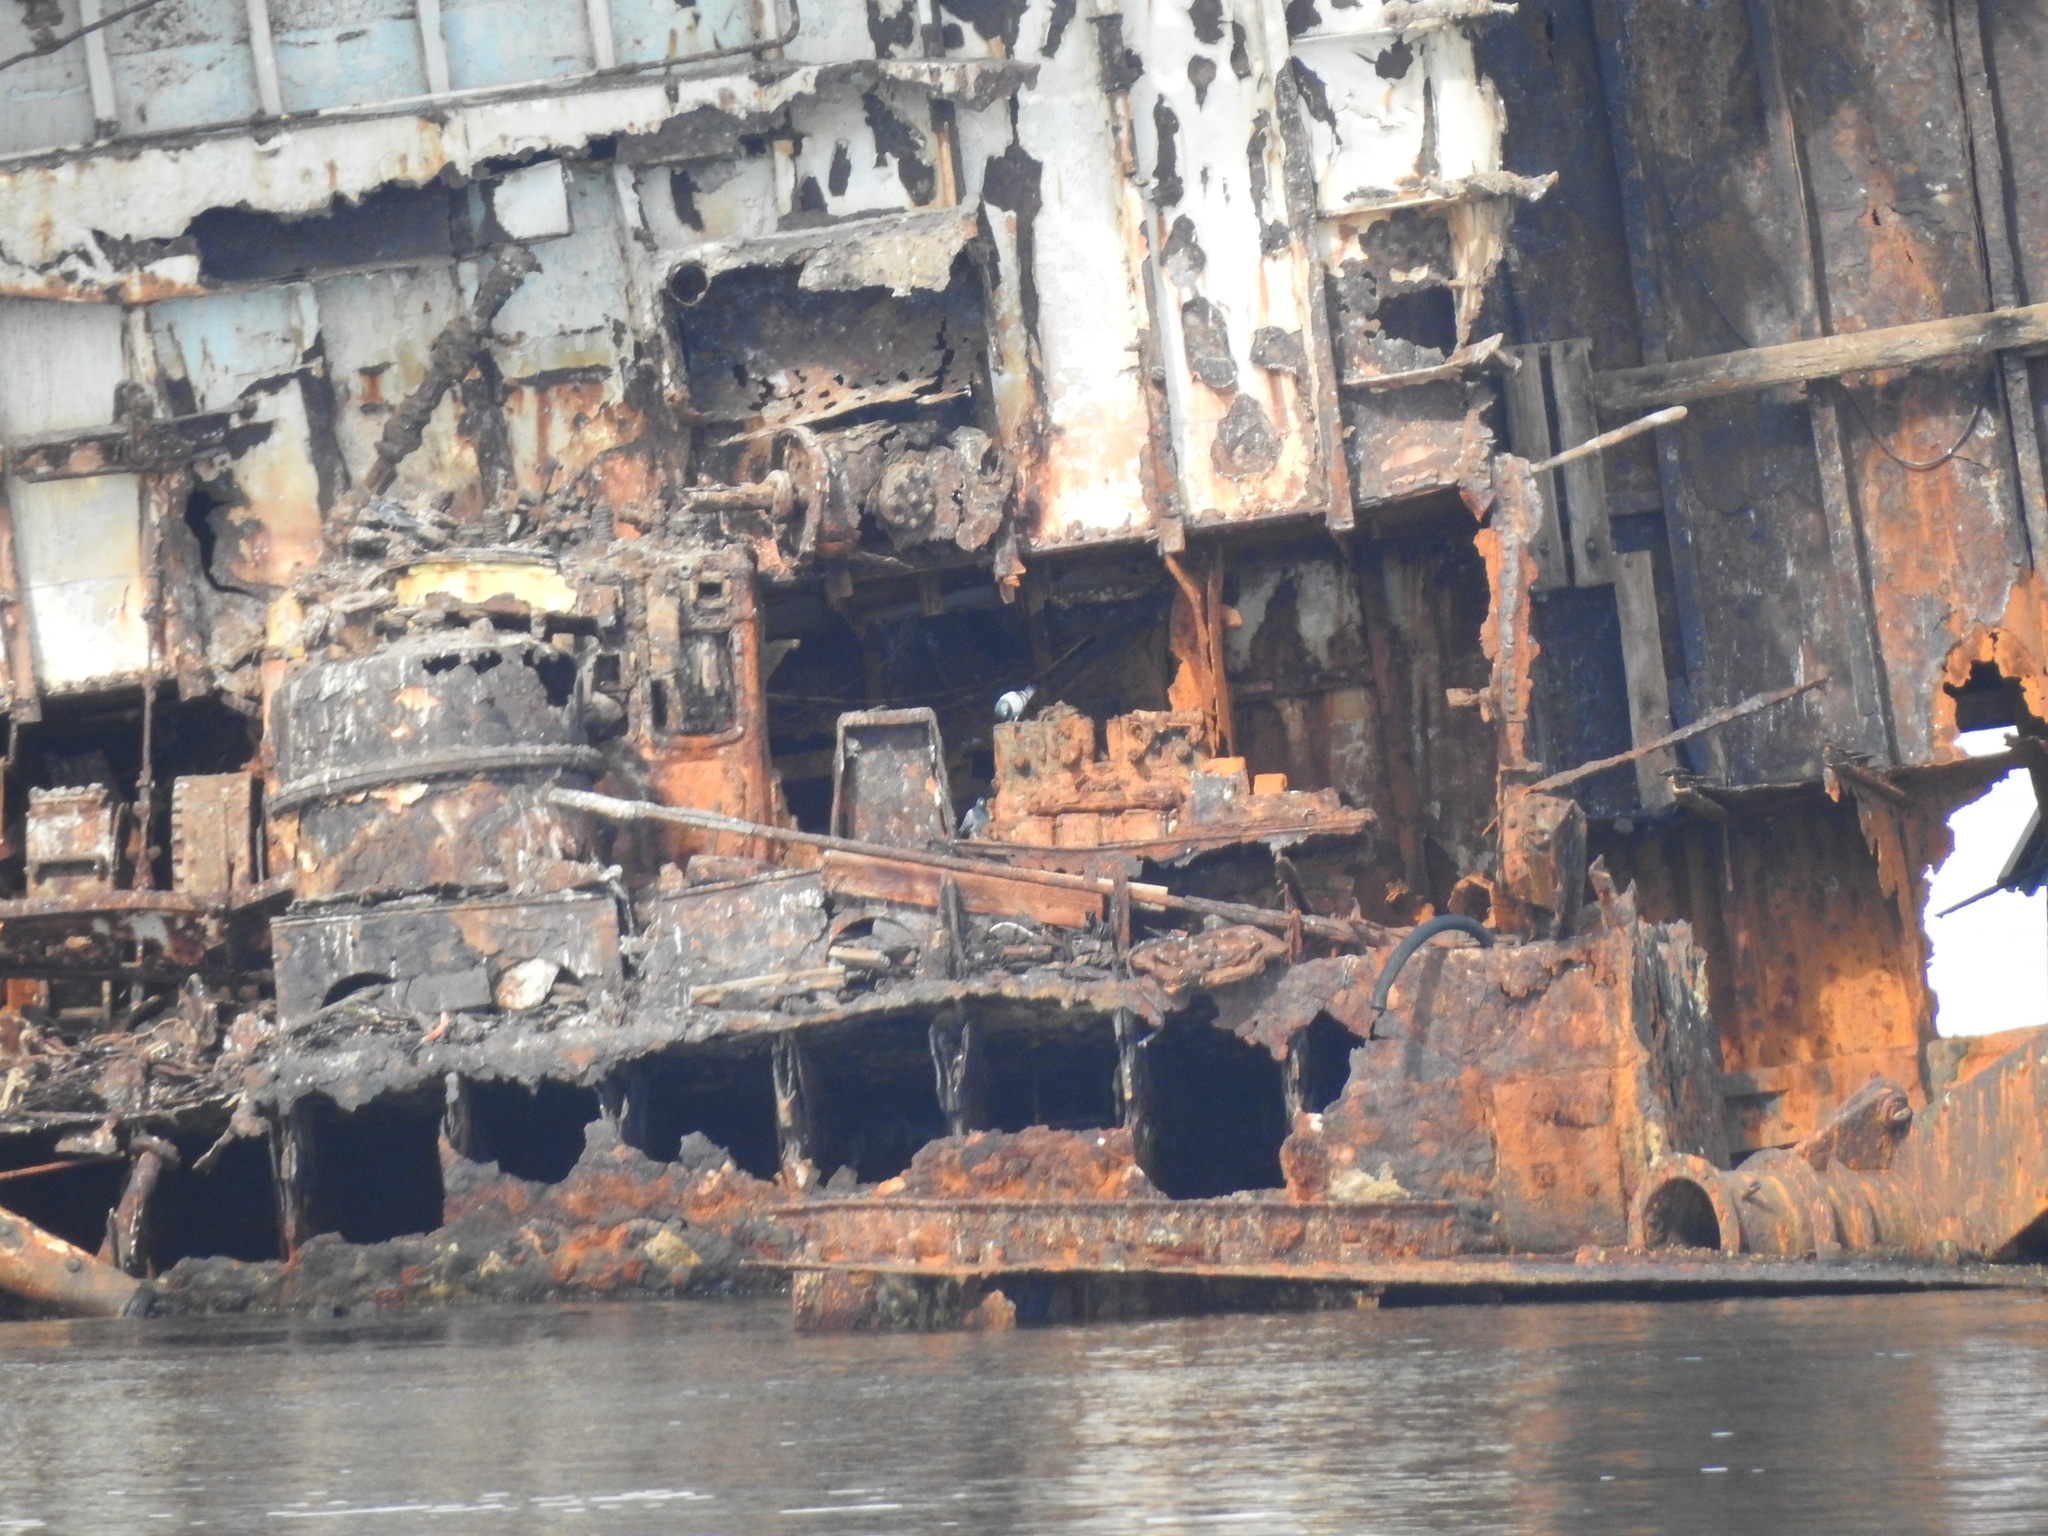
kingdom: Animalia
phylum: Chordata
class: Aves
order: Columbiformes
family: Columbidae
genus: Columba
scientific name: Columba livia
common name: Rock pigeon
